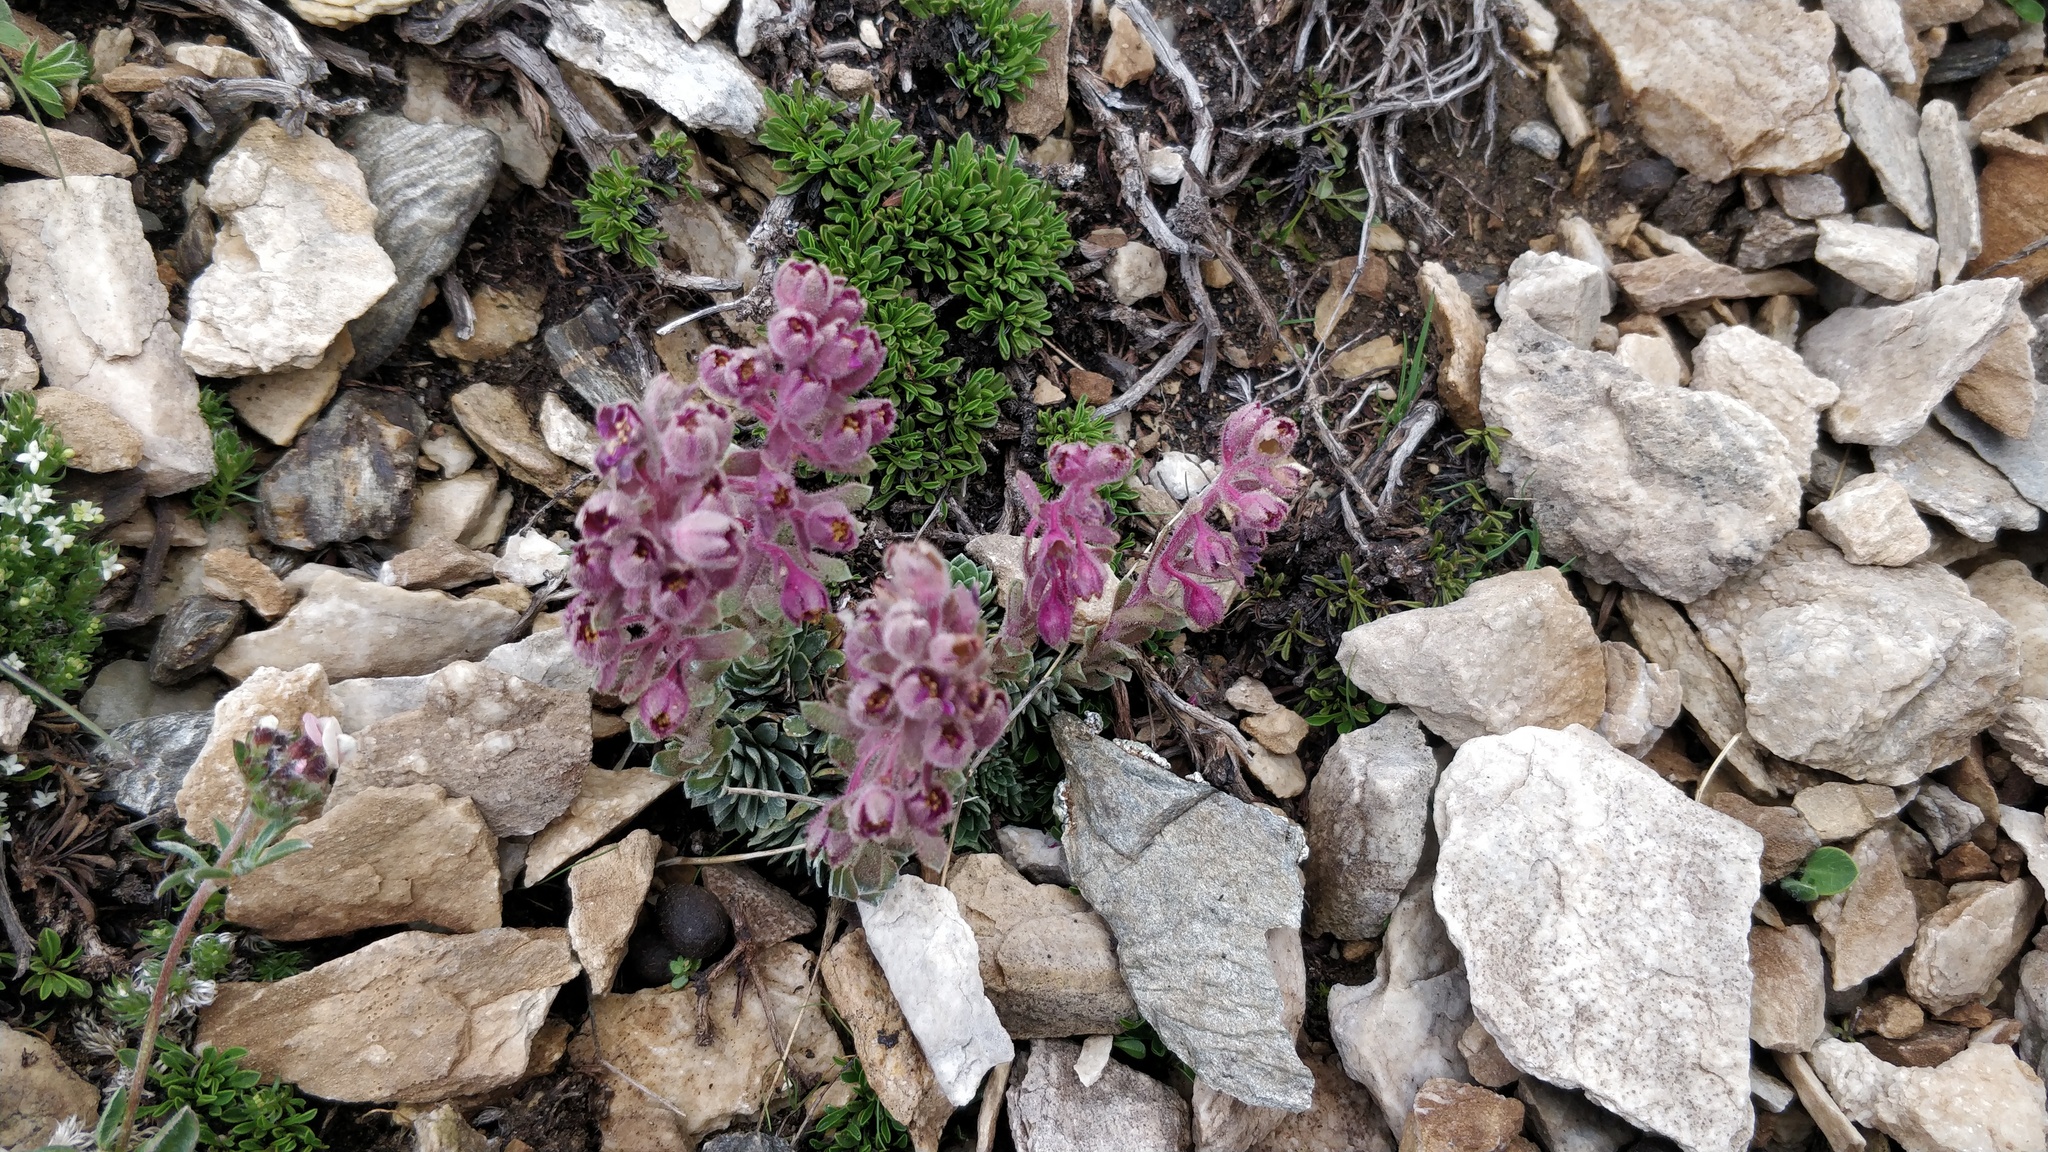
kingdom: Plantae
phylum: Tracheophyta
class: Magnoliopsida
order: Saxifragales
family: Saxifragaceae
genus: Saxifraga
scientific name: Saxifraga media
